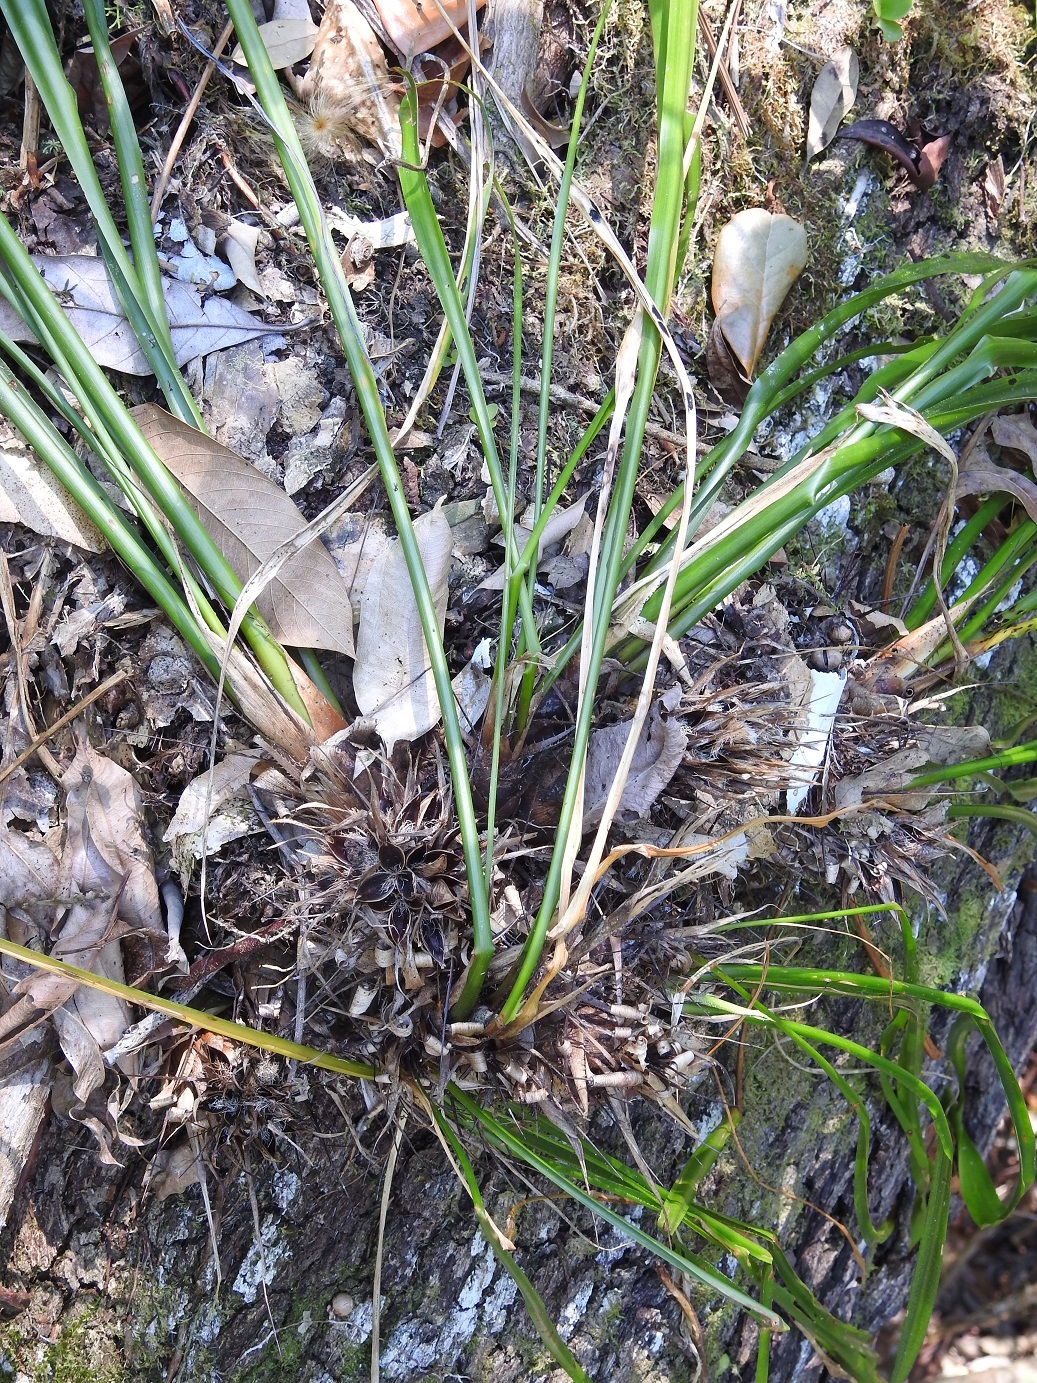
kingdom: Plantae
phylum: Tracheophyta
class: Liliopsida
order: Poales
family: Bromeliaceae
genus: Pitcairnia
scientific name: Pitcairnia heterophylla
